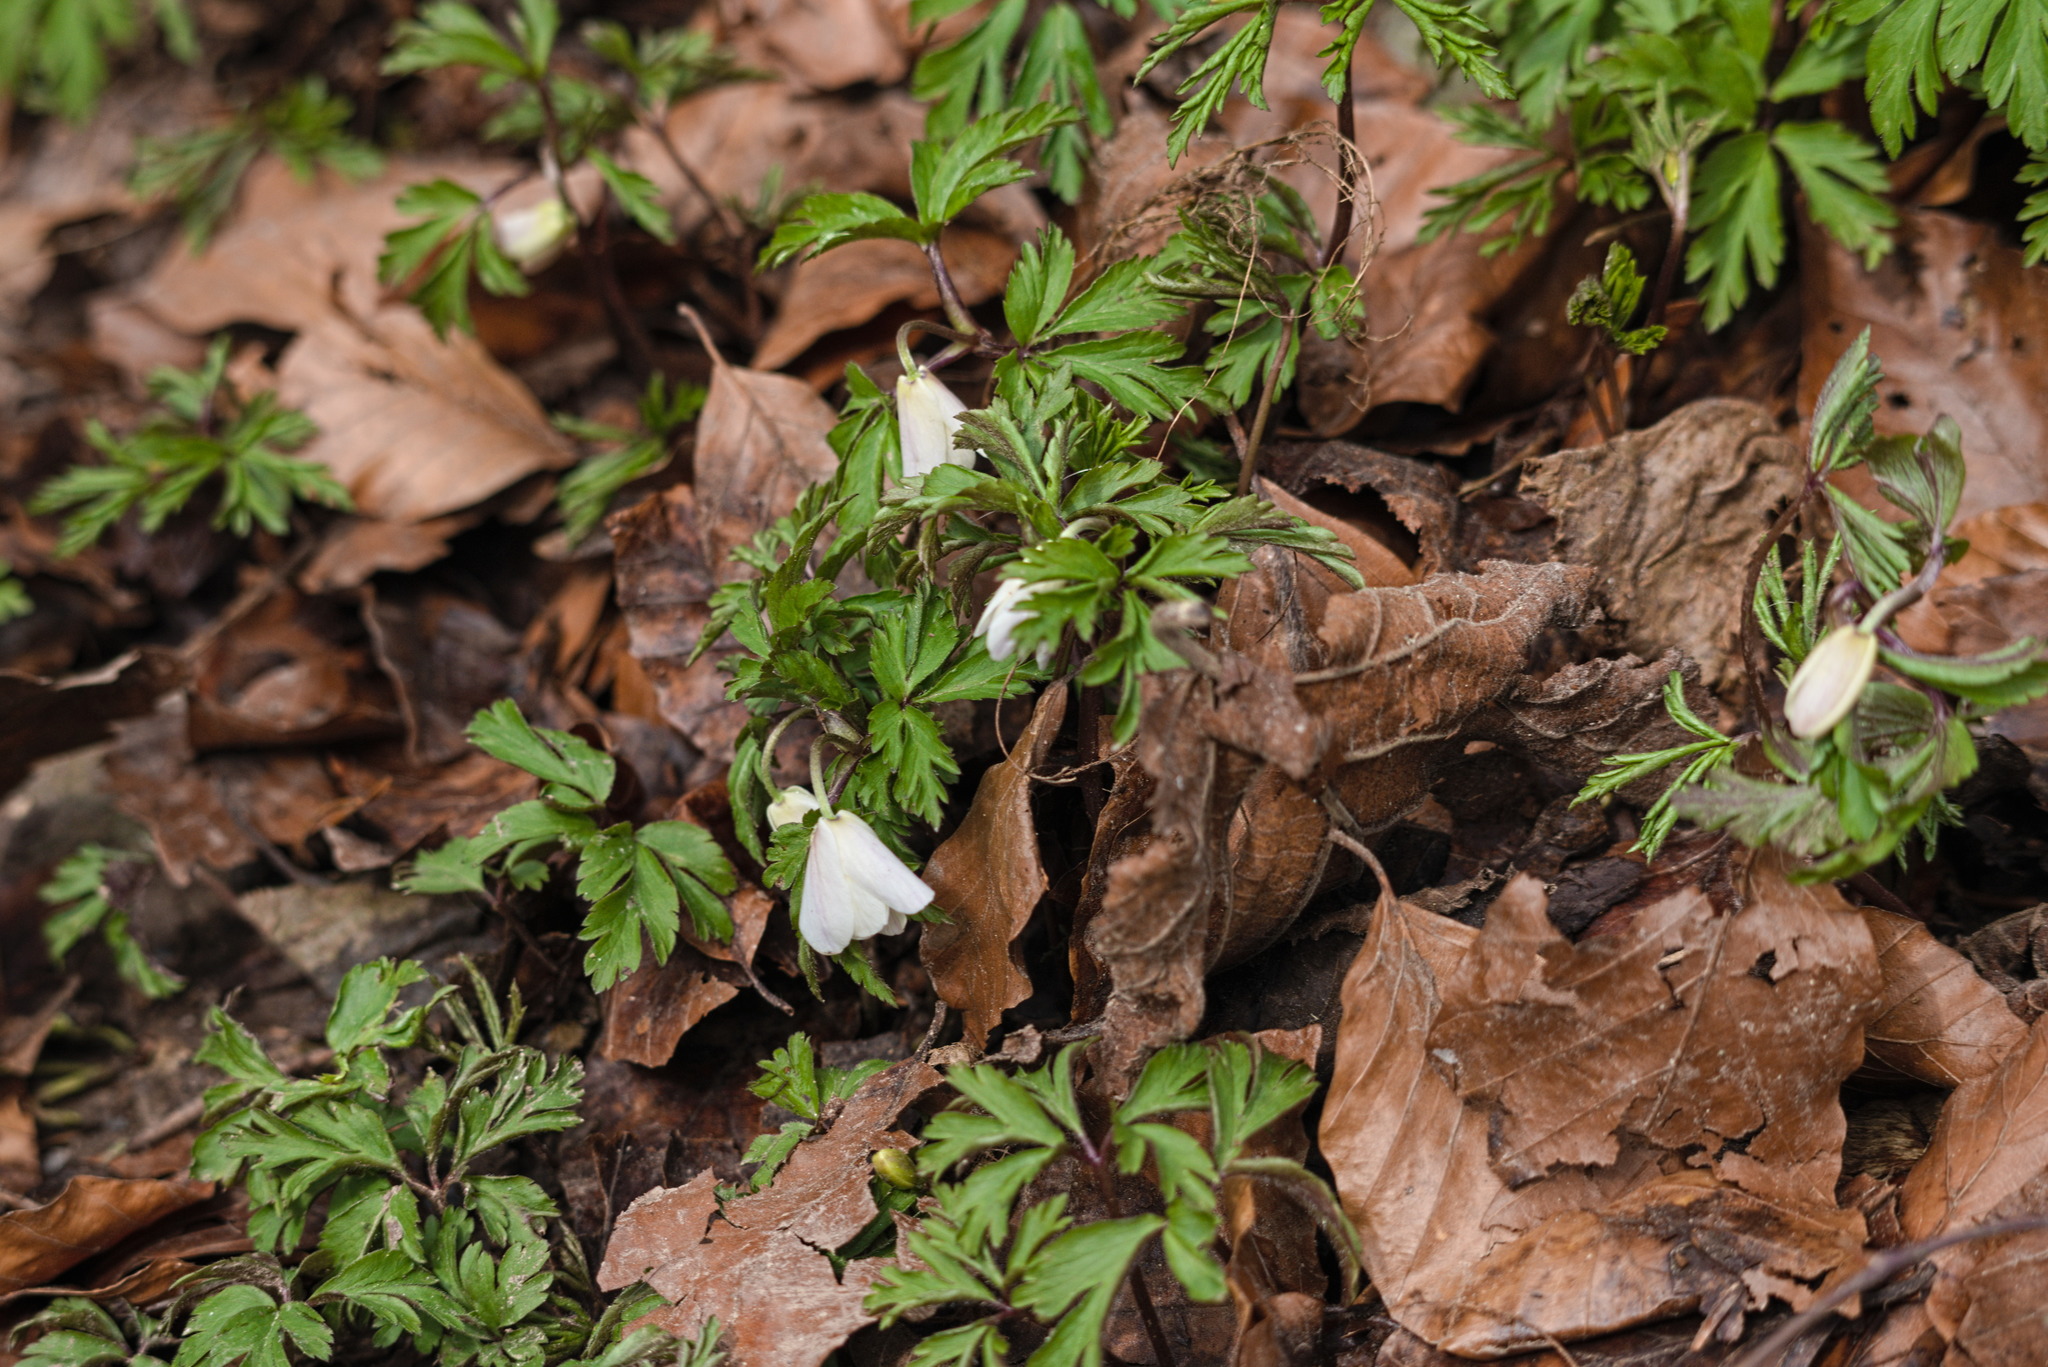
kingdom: Plantae
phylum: Tracheophyta
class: Magnoliopsida
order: Ranunculales
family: Ranunculaceae
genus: Anemone
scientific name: Anemone nemorosa
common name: Wood anemone
